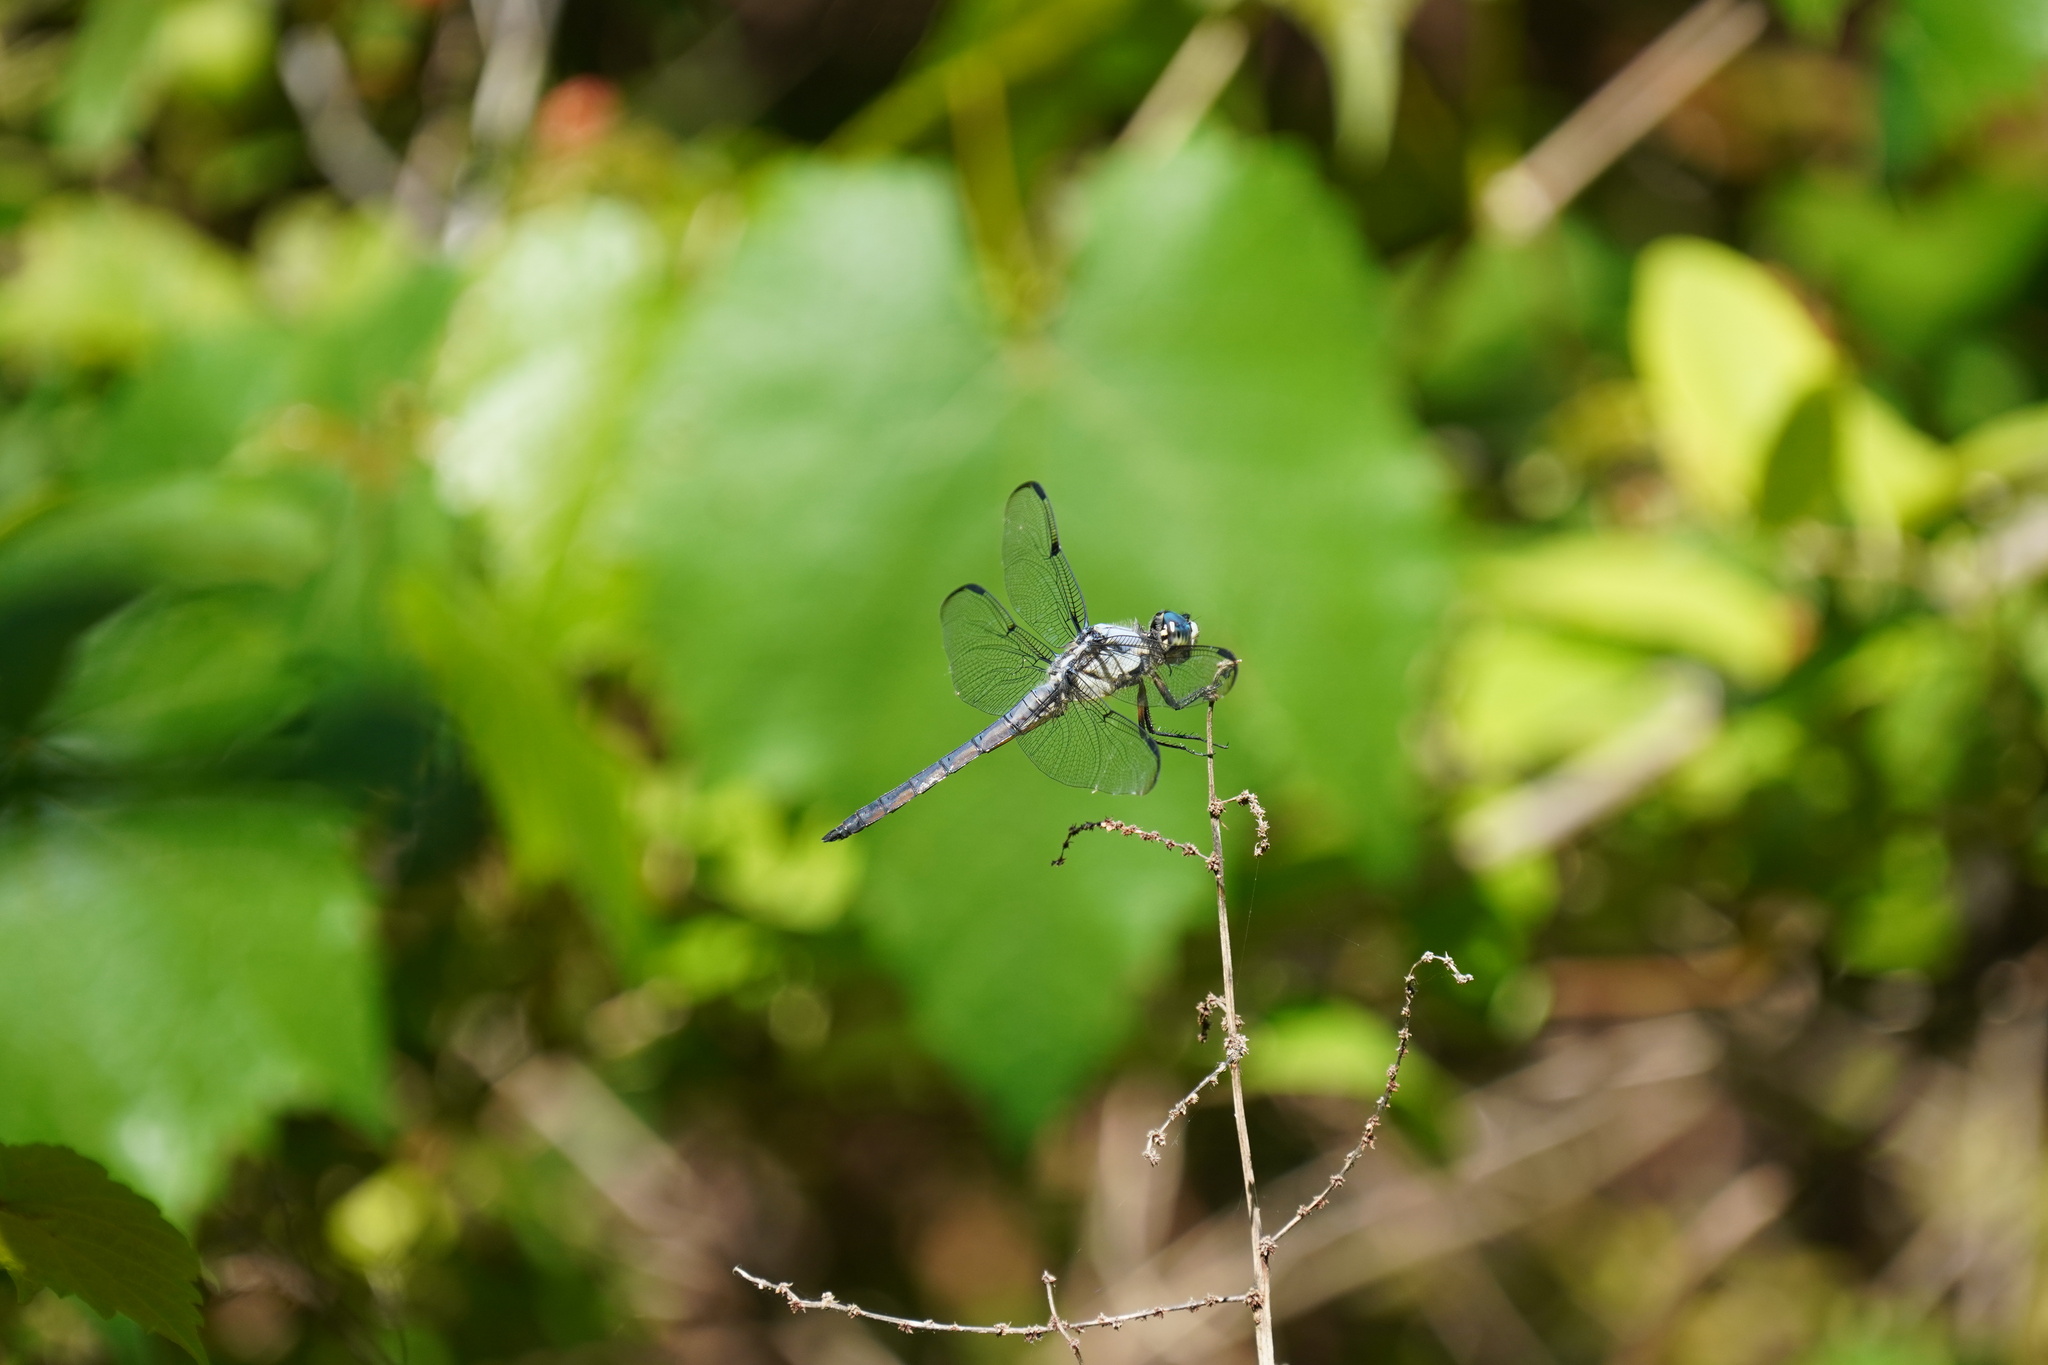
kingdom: Animalia
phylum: Arthropoda
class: Insecta
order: Odonata
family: Libellulidae
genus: Libellula
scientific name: Libellula vibrans
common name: Great blue skimmer
